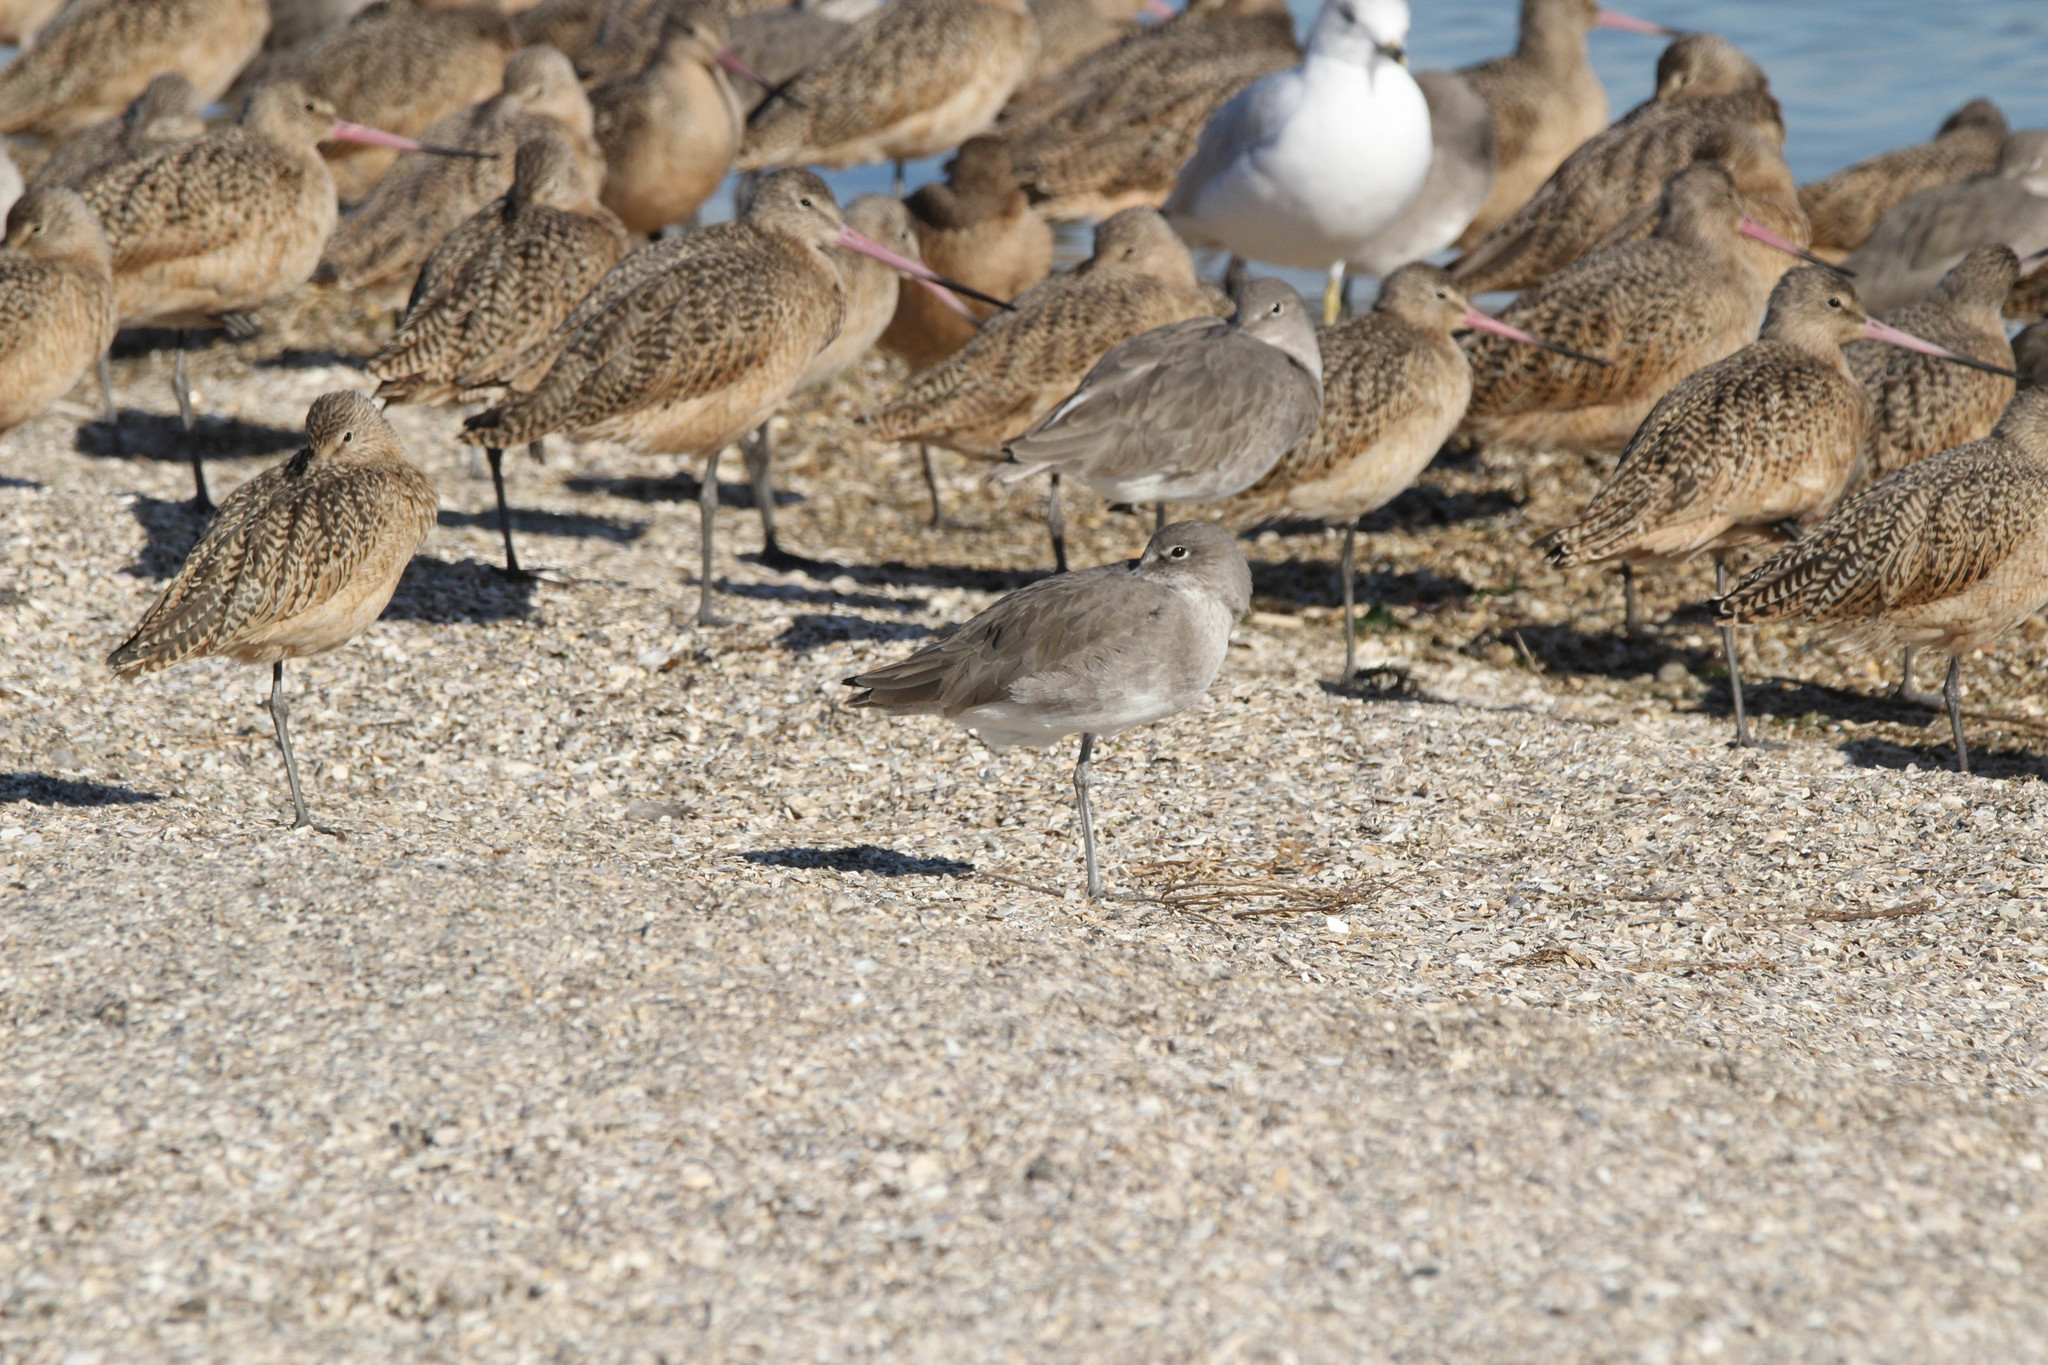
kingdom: Animalia
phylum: Chordata
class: Aves
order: Charadriiformes
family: Scolopacidae
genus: Tringa
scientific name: Tringa semipalmata
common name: Willet
